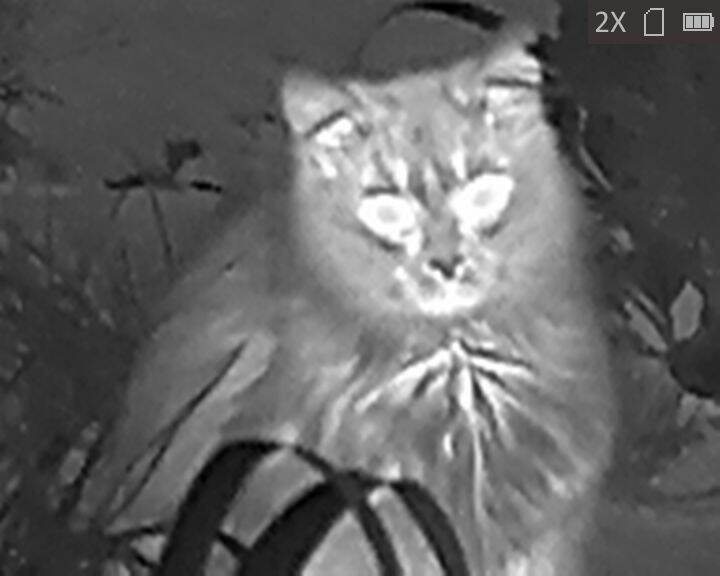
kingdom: Animalia
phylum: Chordata
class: Mammalia
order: Carnivora
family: Felidae
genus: Felis
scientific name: Felis catus
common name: Domestic cat
